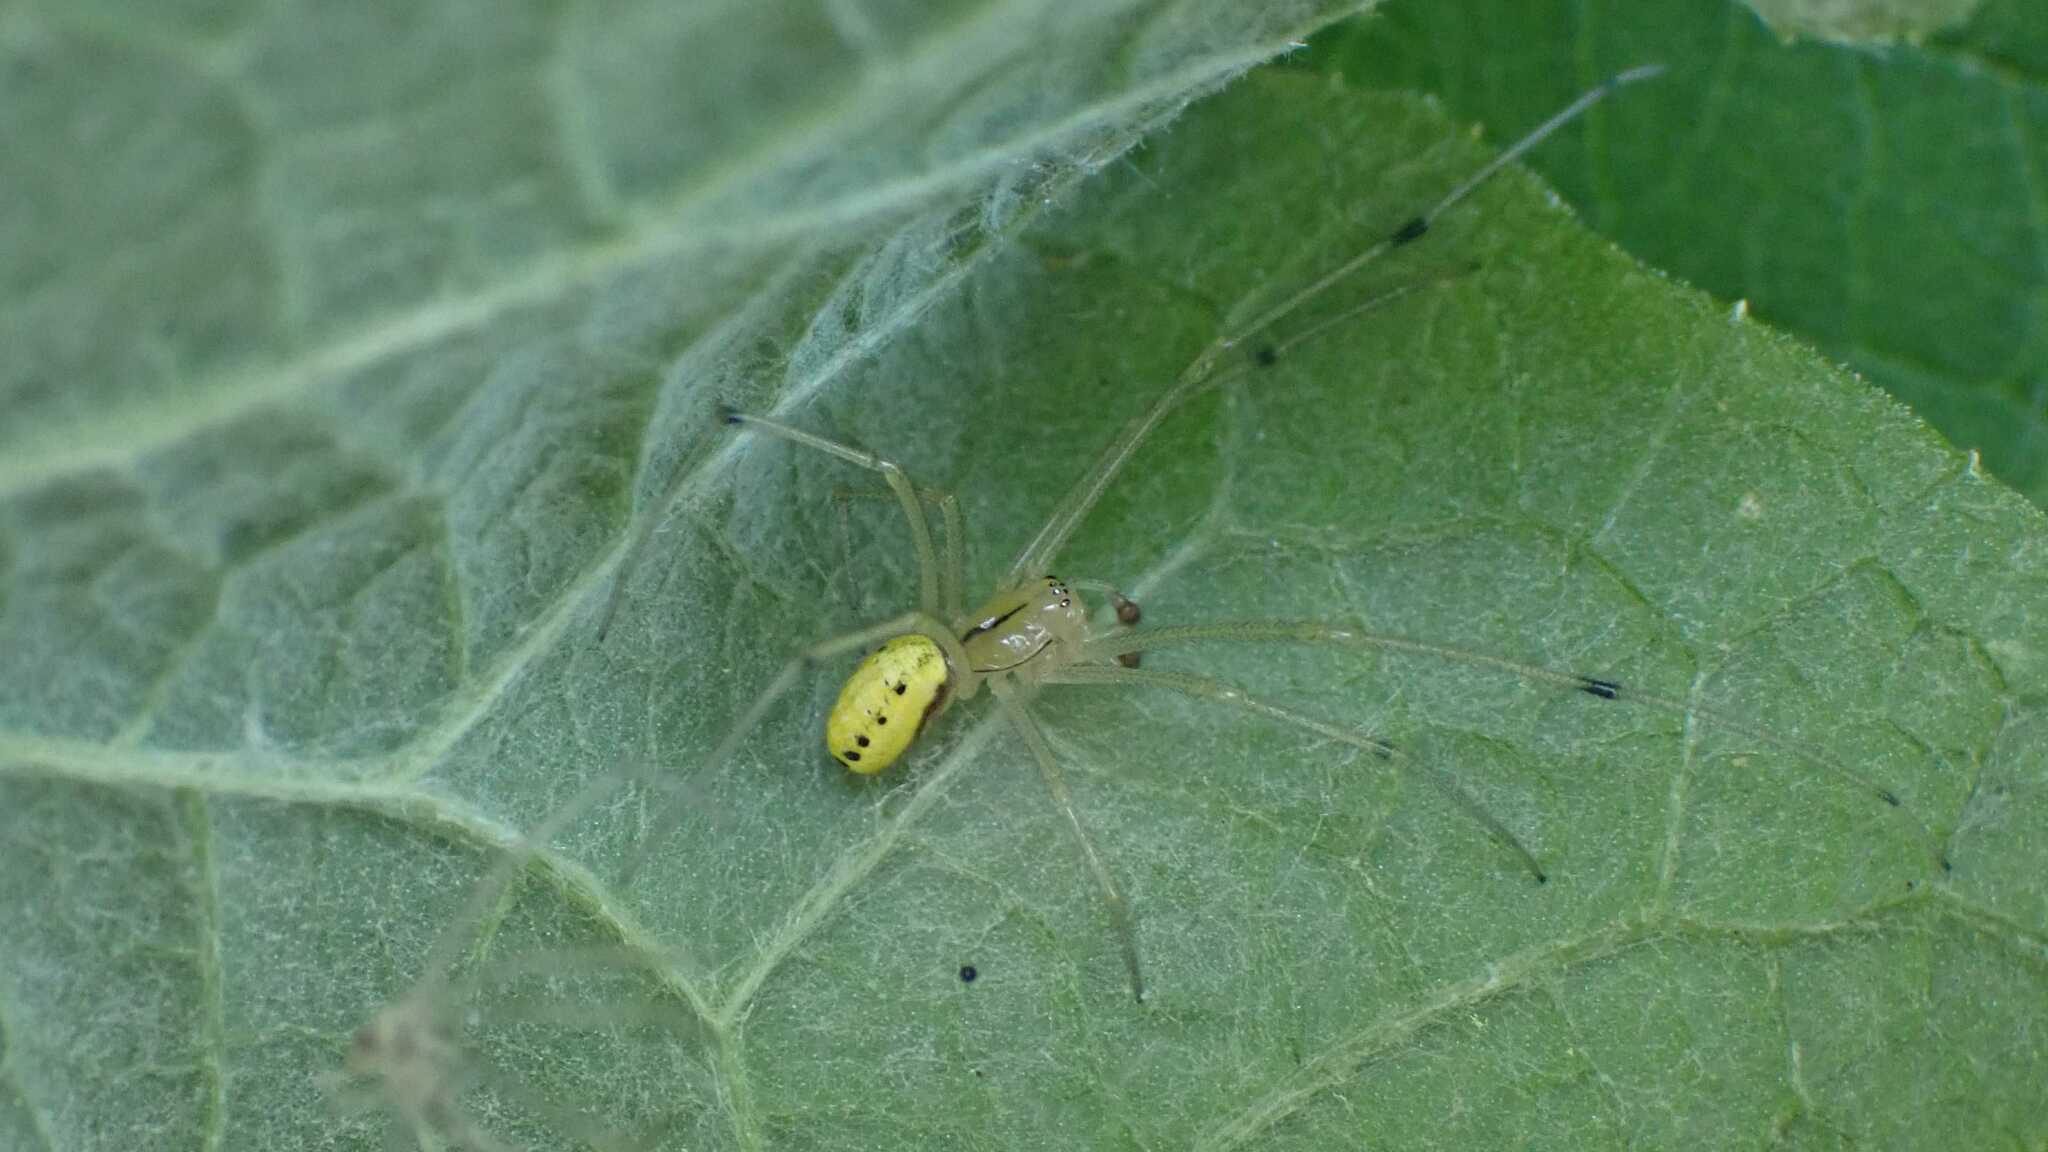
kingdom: Animalia
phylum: Arthropoda
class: Arachnida
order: Araneae
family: Theridiidae
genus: Enoplognatha
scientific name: Enoplognatha
